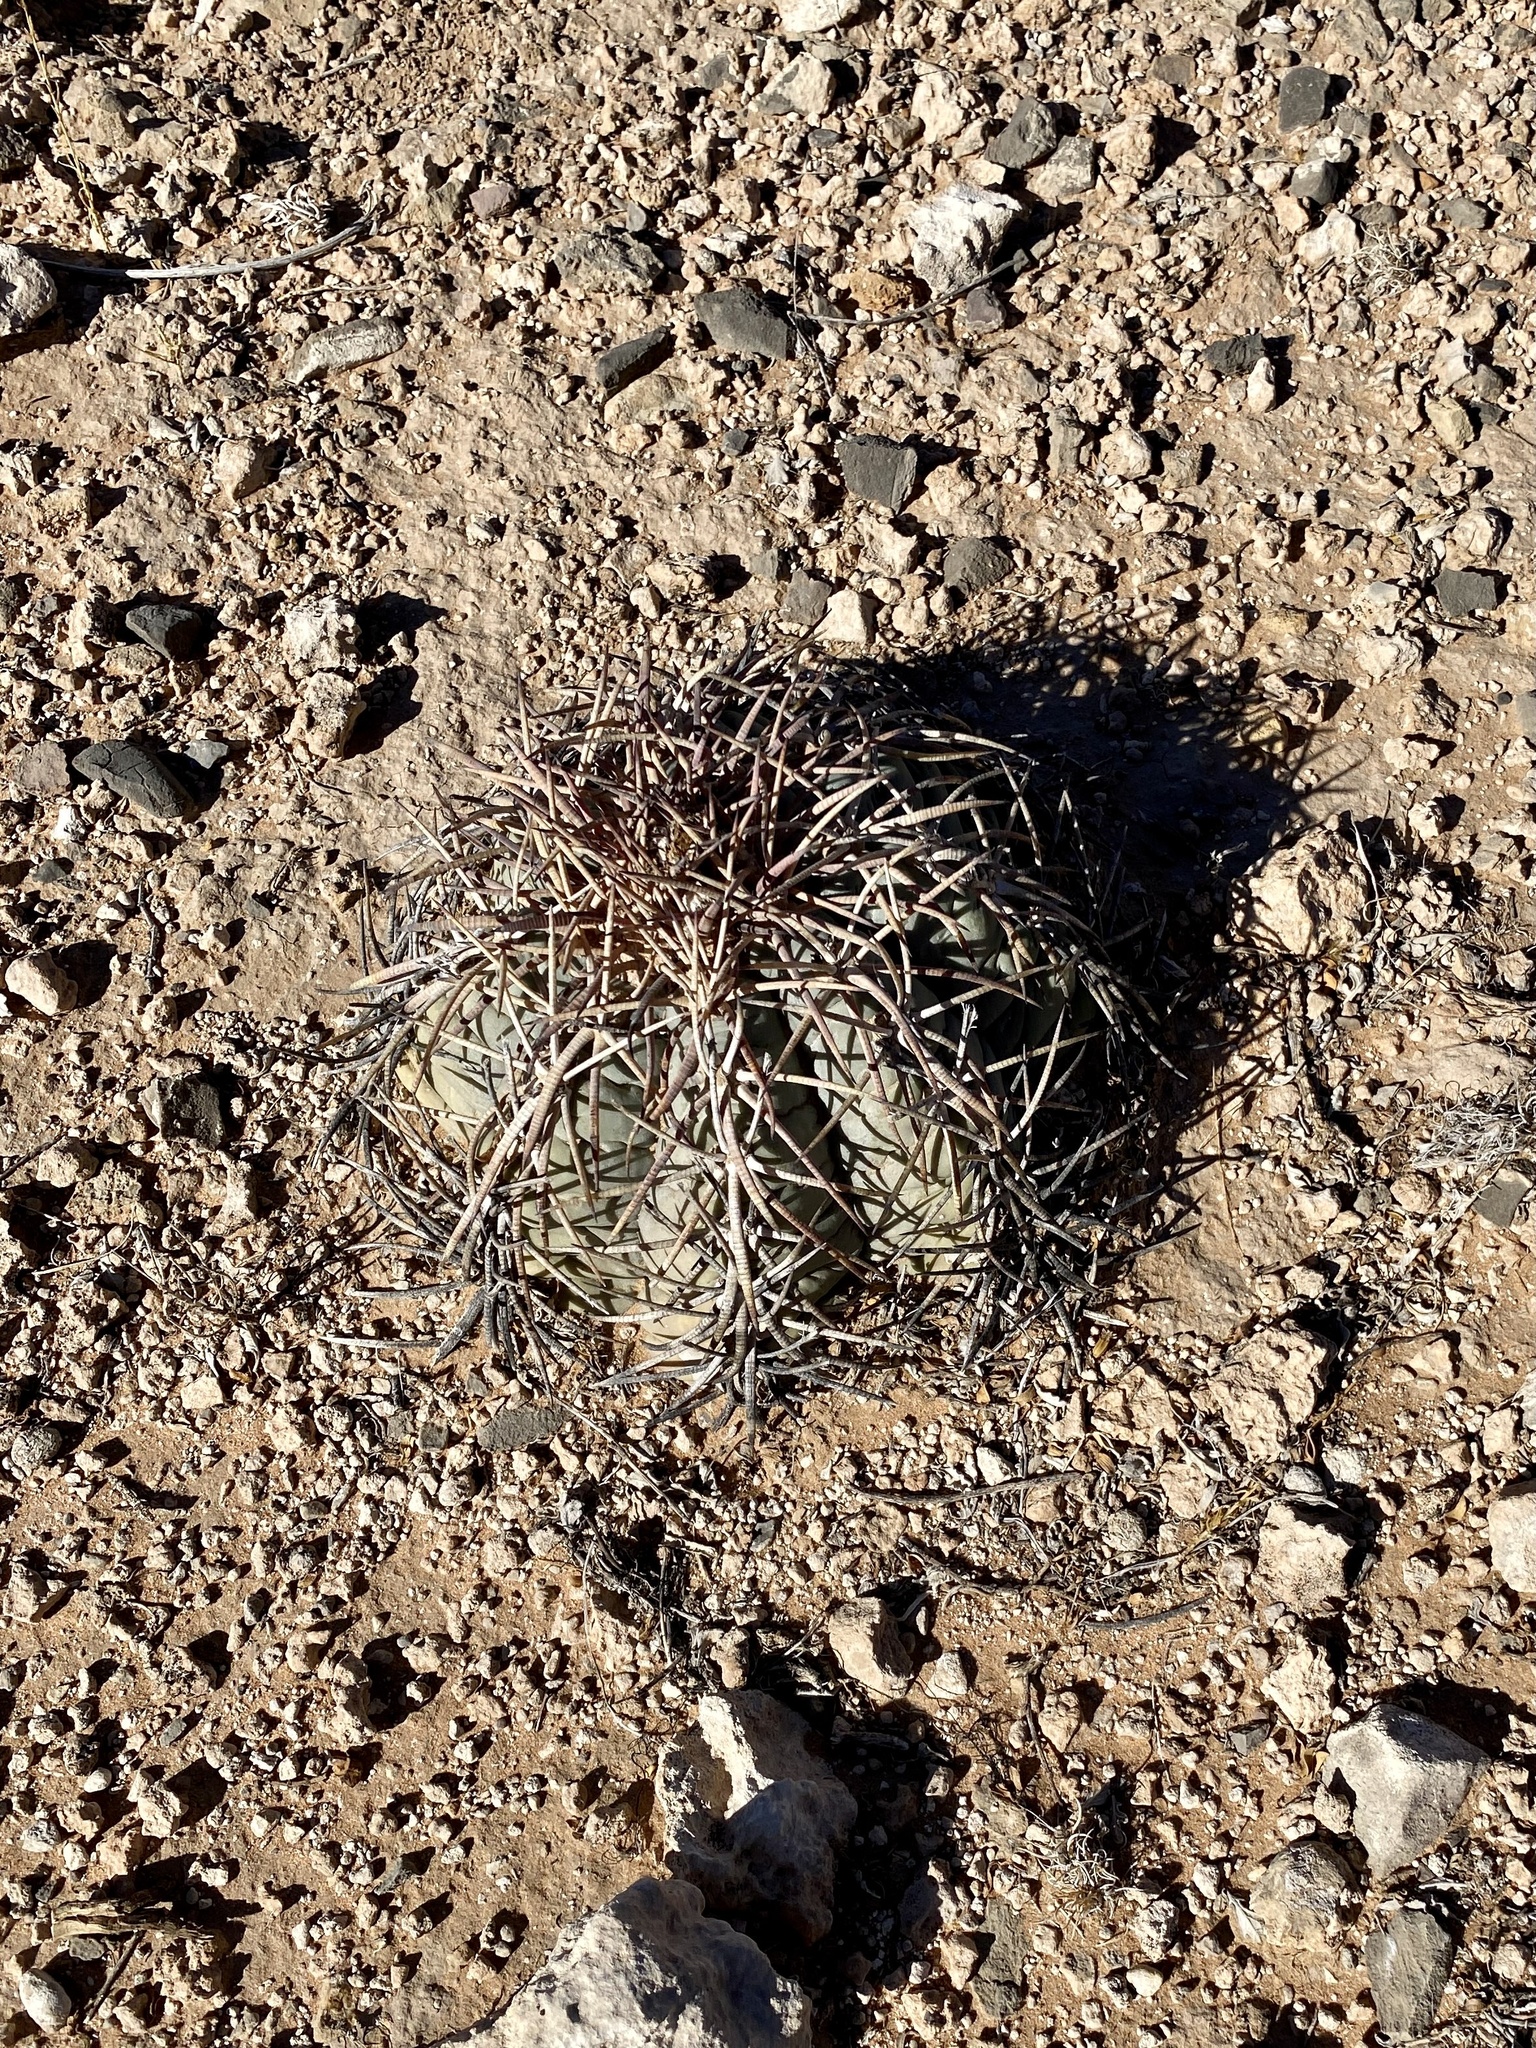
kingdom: Plantae
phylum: Tracheophyta
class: Magnoliopsida
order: Caryophyllales
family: Cactaceae
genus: Echinocactus
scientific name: Echinocactus horizonthalonius
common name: Devilshead
